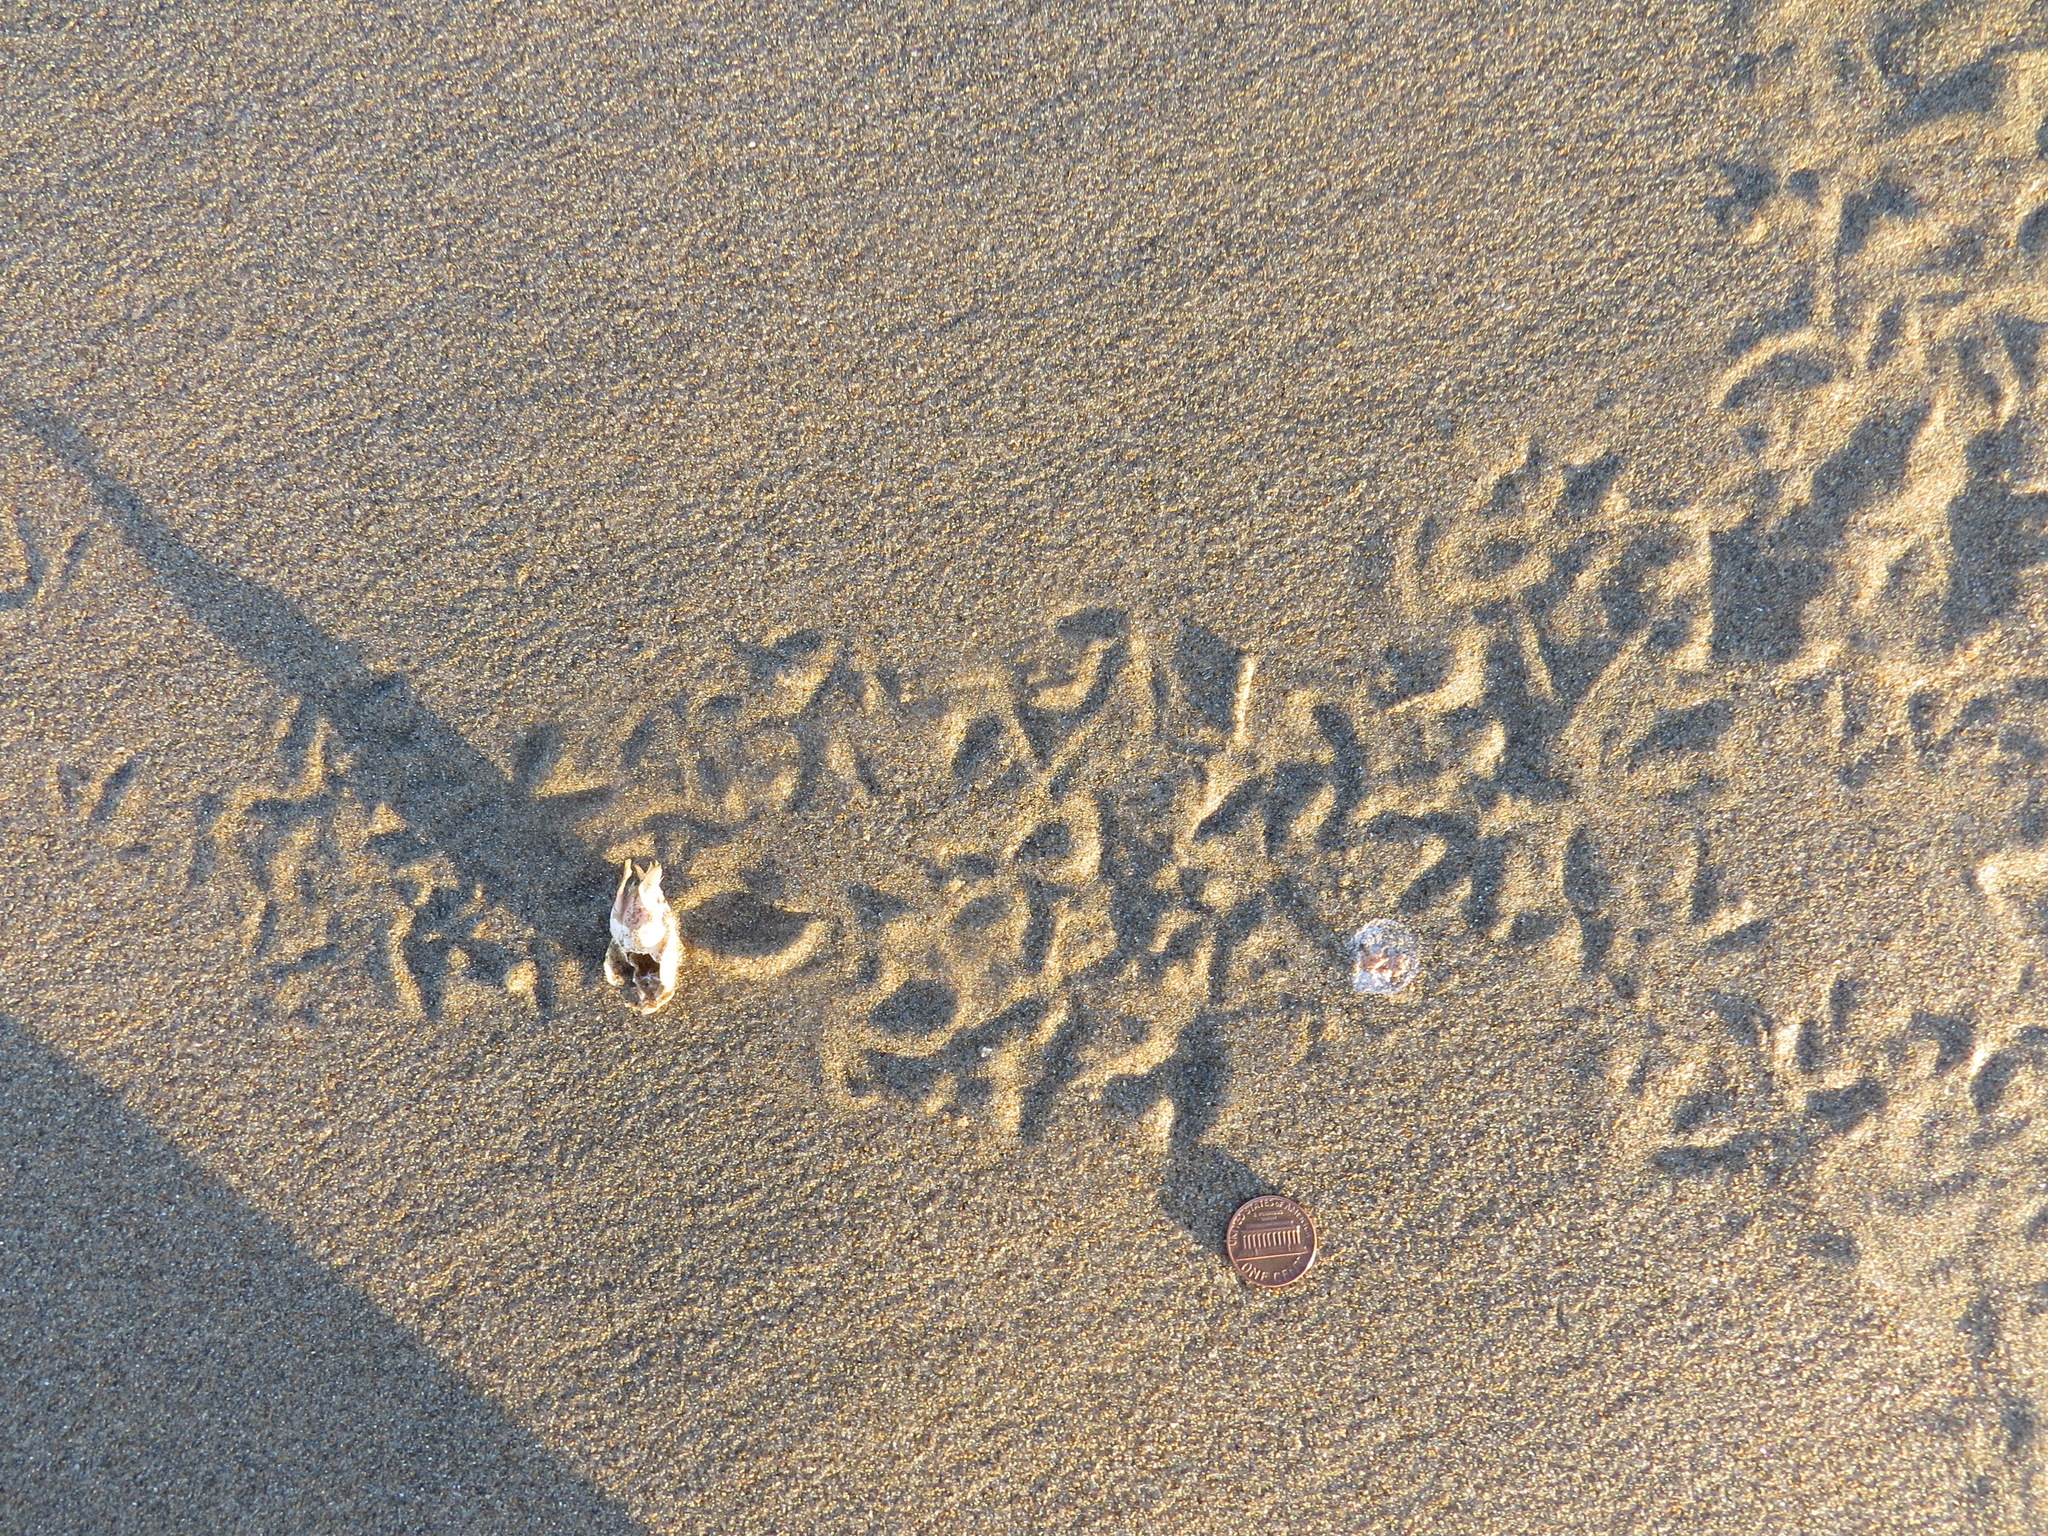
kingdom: Animalia
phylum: Chordata
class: Aves
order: Charadriiformes
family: Scolopacidae
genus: Calidris
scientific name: Calidris alba
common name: Sanderling
